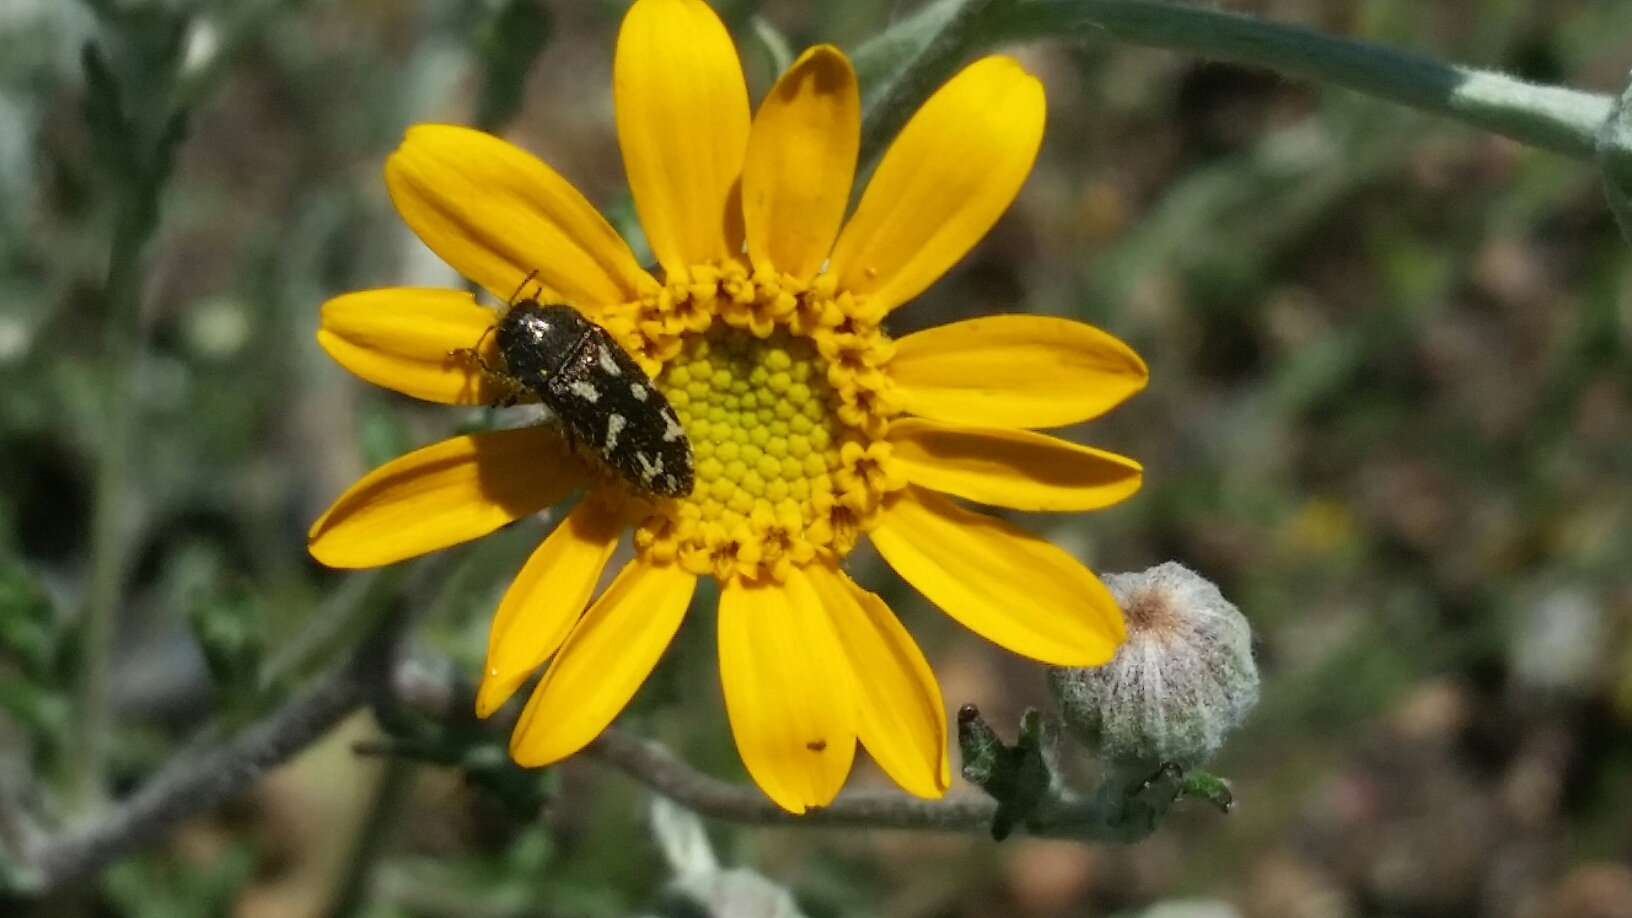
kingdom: Animalia
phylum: Arthropoda
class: Insecta
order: Coleoptera
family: Buprestidae
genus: Acmaeodera
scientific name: Acmaeodera retifera
